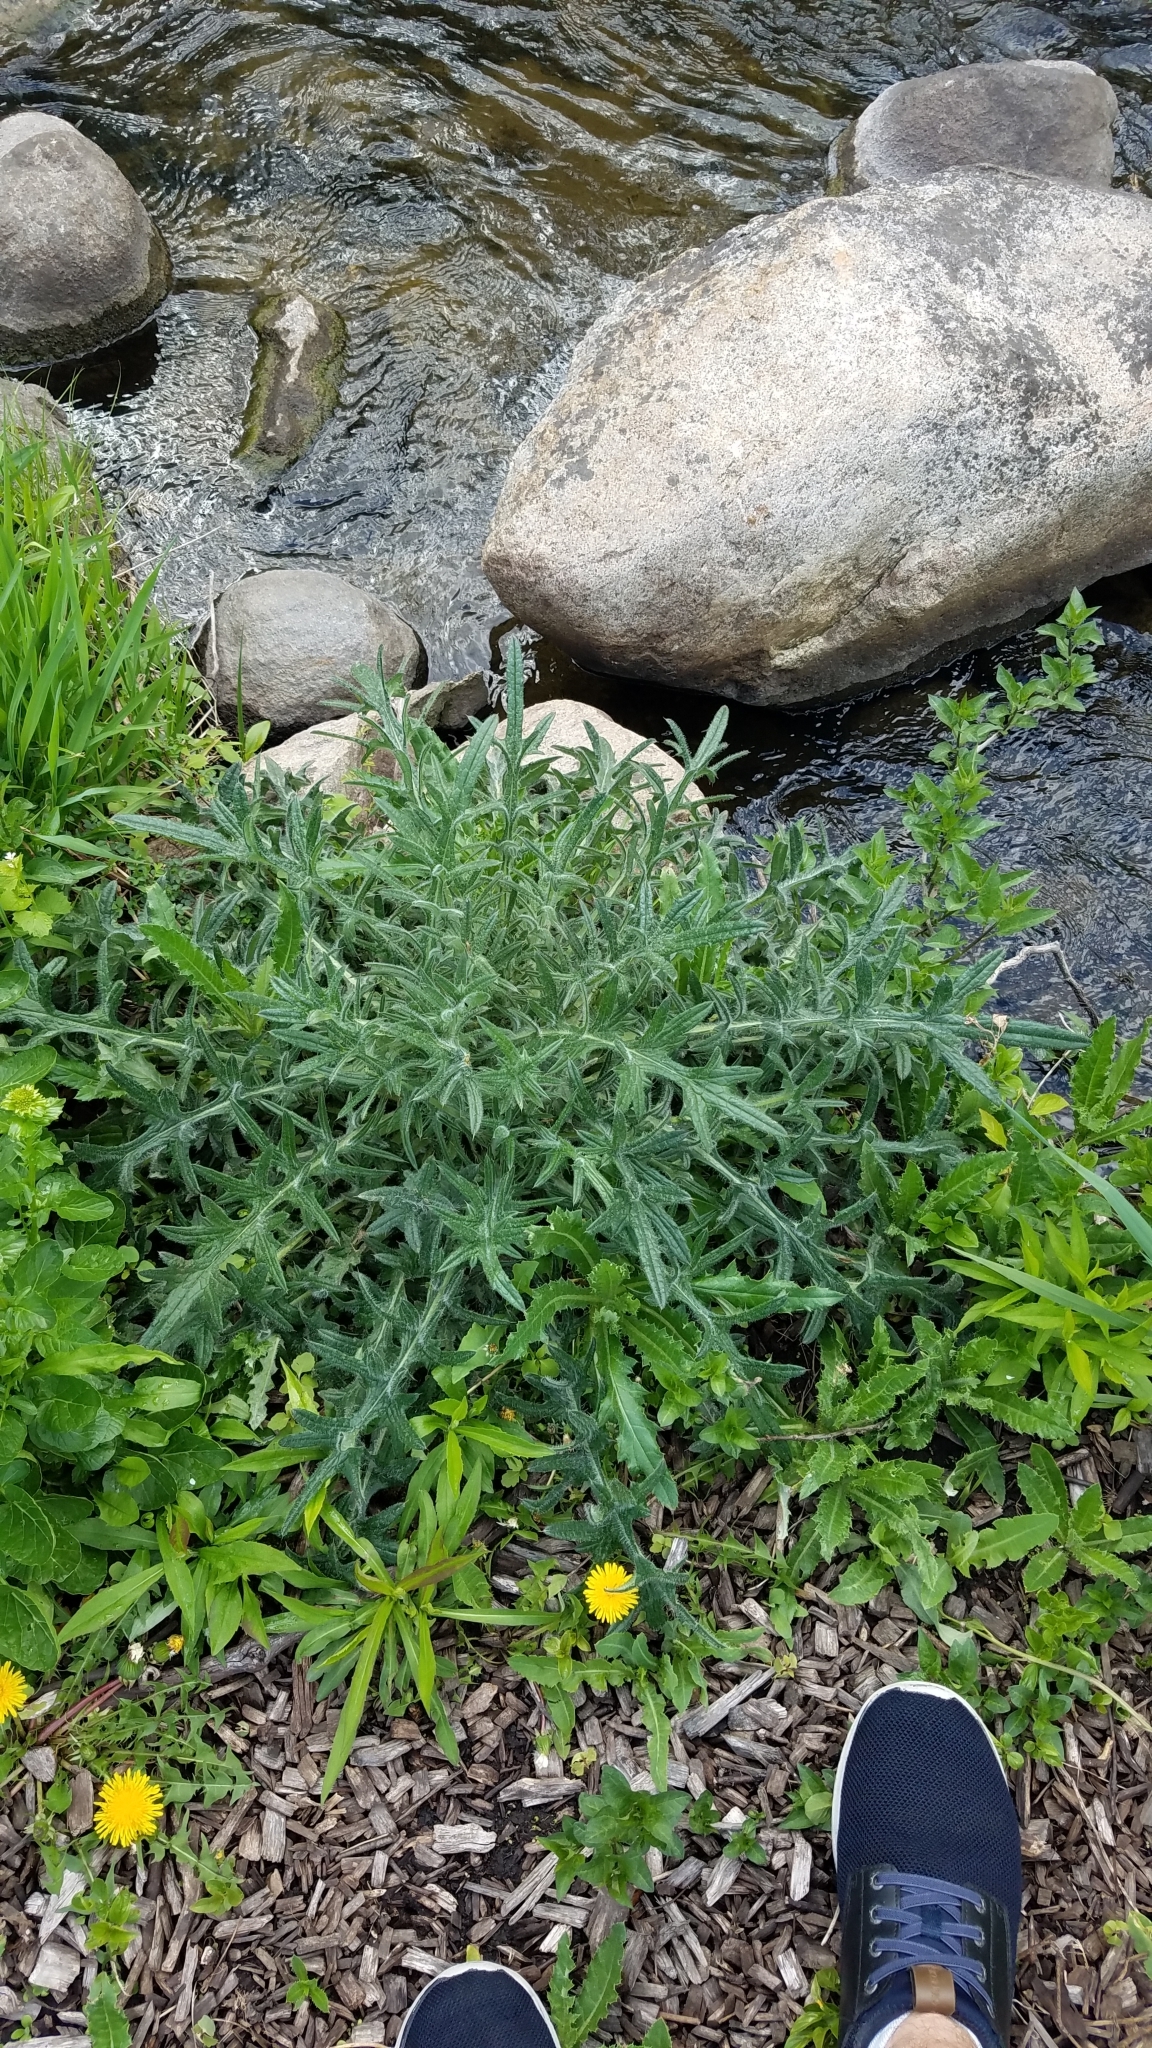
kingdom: Plantae
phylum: Tracheophyta
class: Magnoliopsida
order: Asterales
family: Asteraceae
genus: Cirsium
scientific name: Cirsium vulgare
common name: Bull thistle
